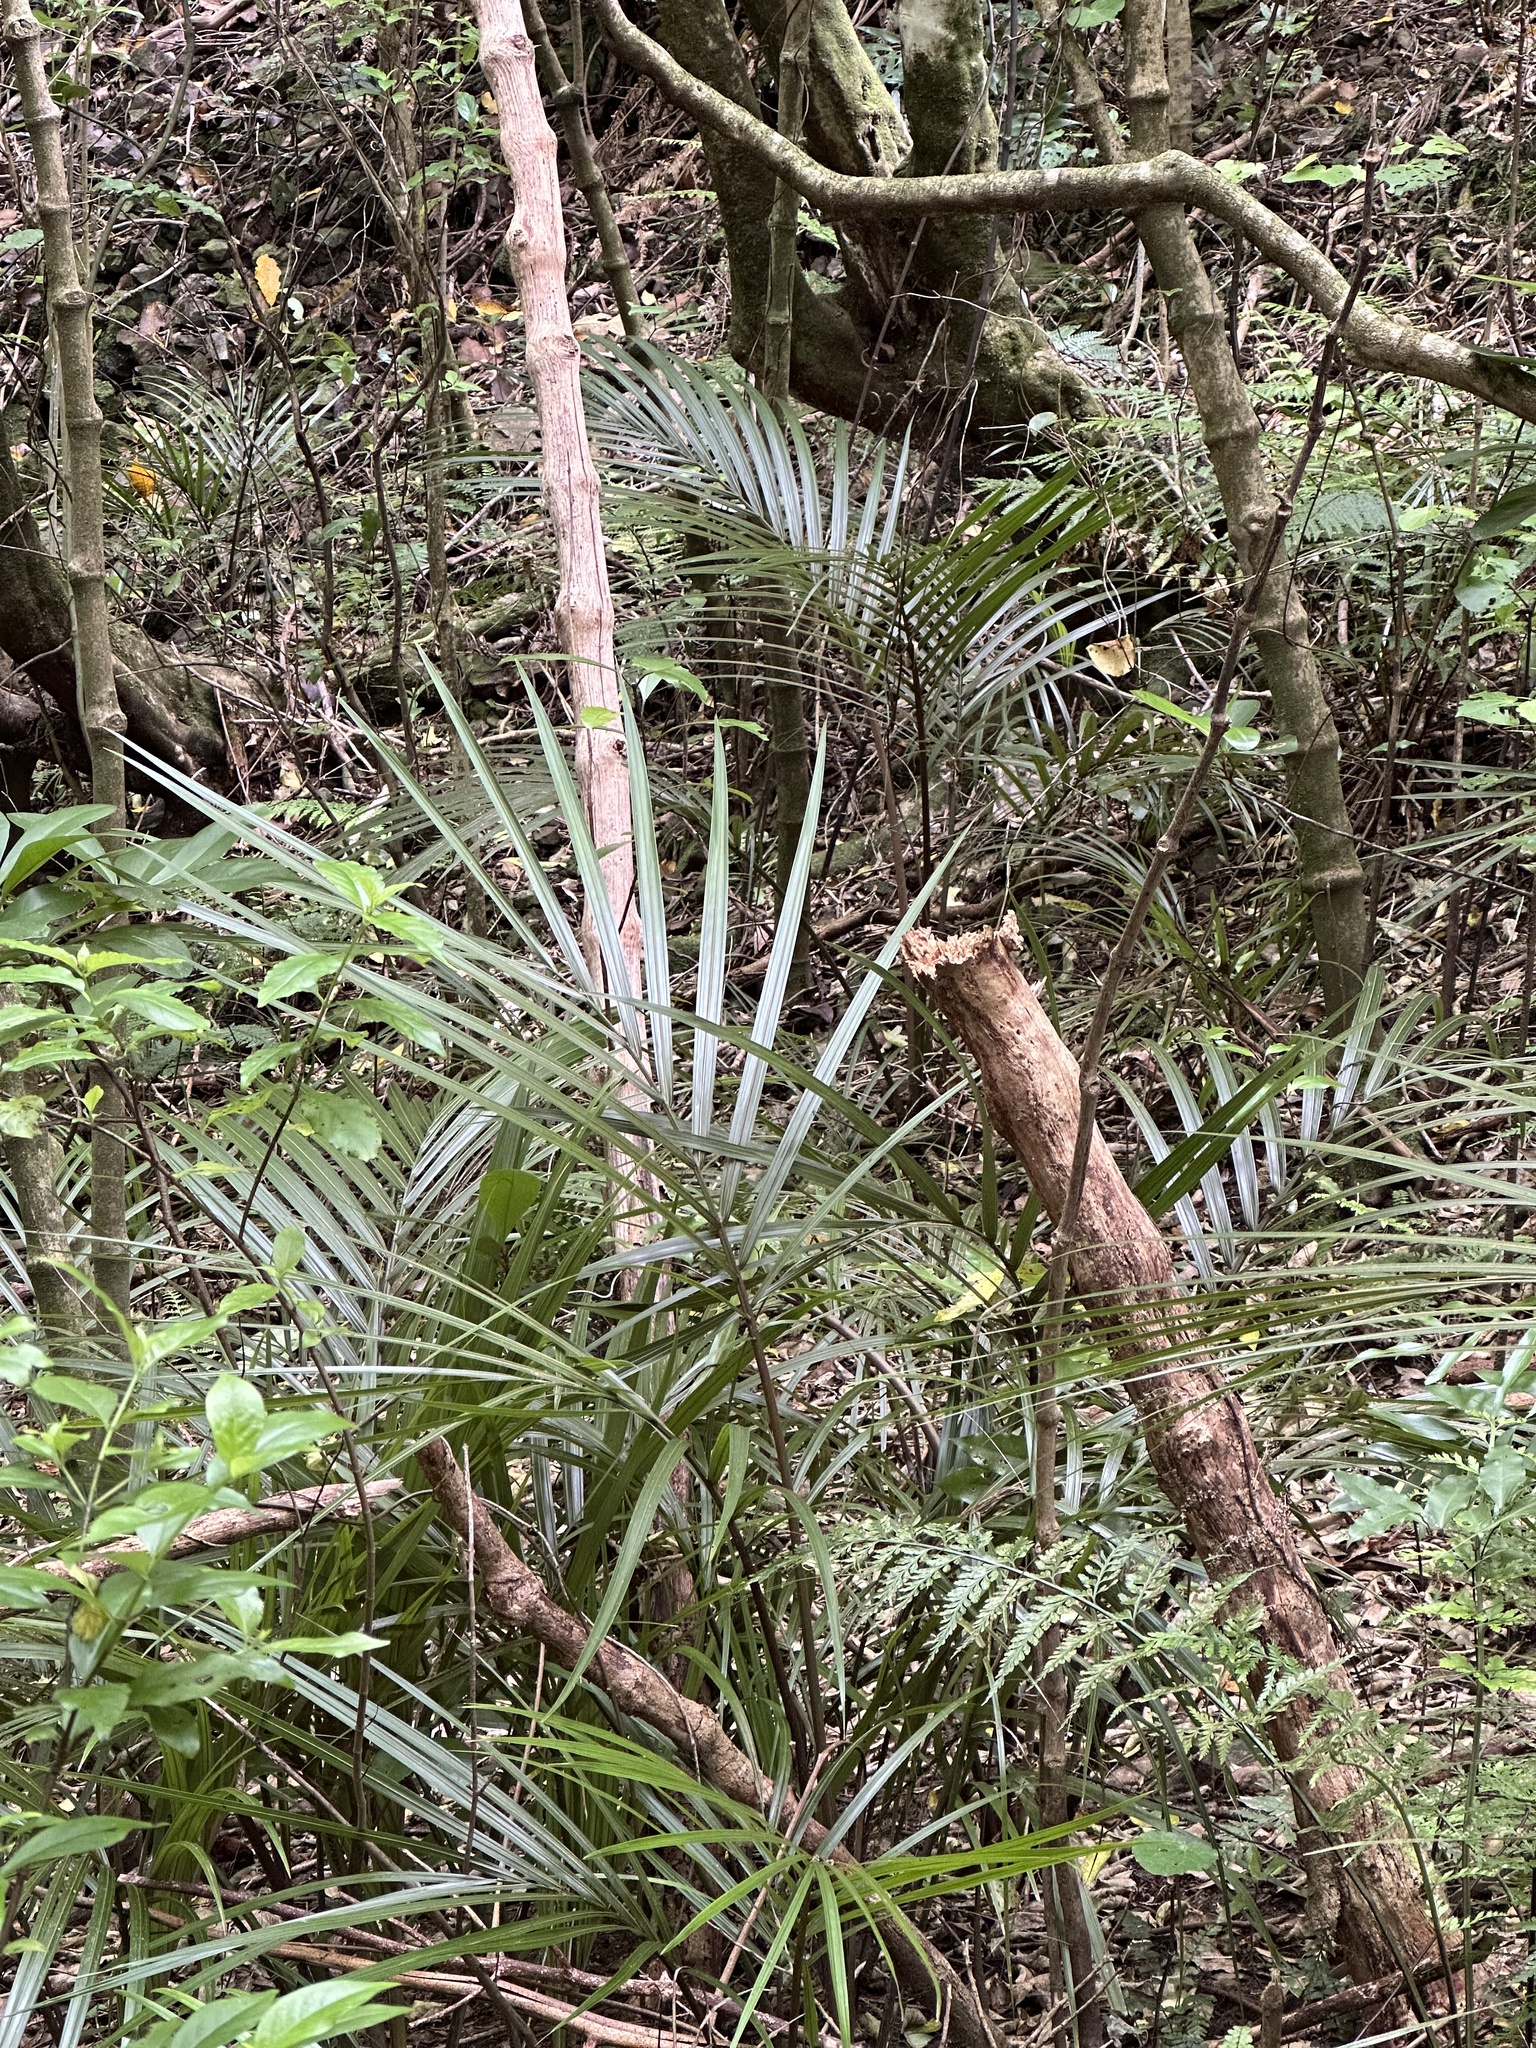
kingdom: Plantae
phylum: Tracheophyta
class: Liliopsida
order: Arecales
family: Arecaceae
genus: Rhopalostylis
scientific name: Rhopalostylis sapida
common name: Feather-duster palm
